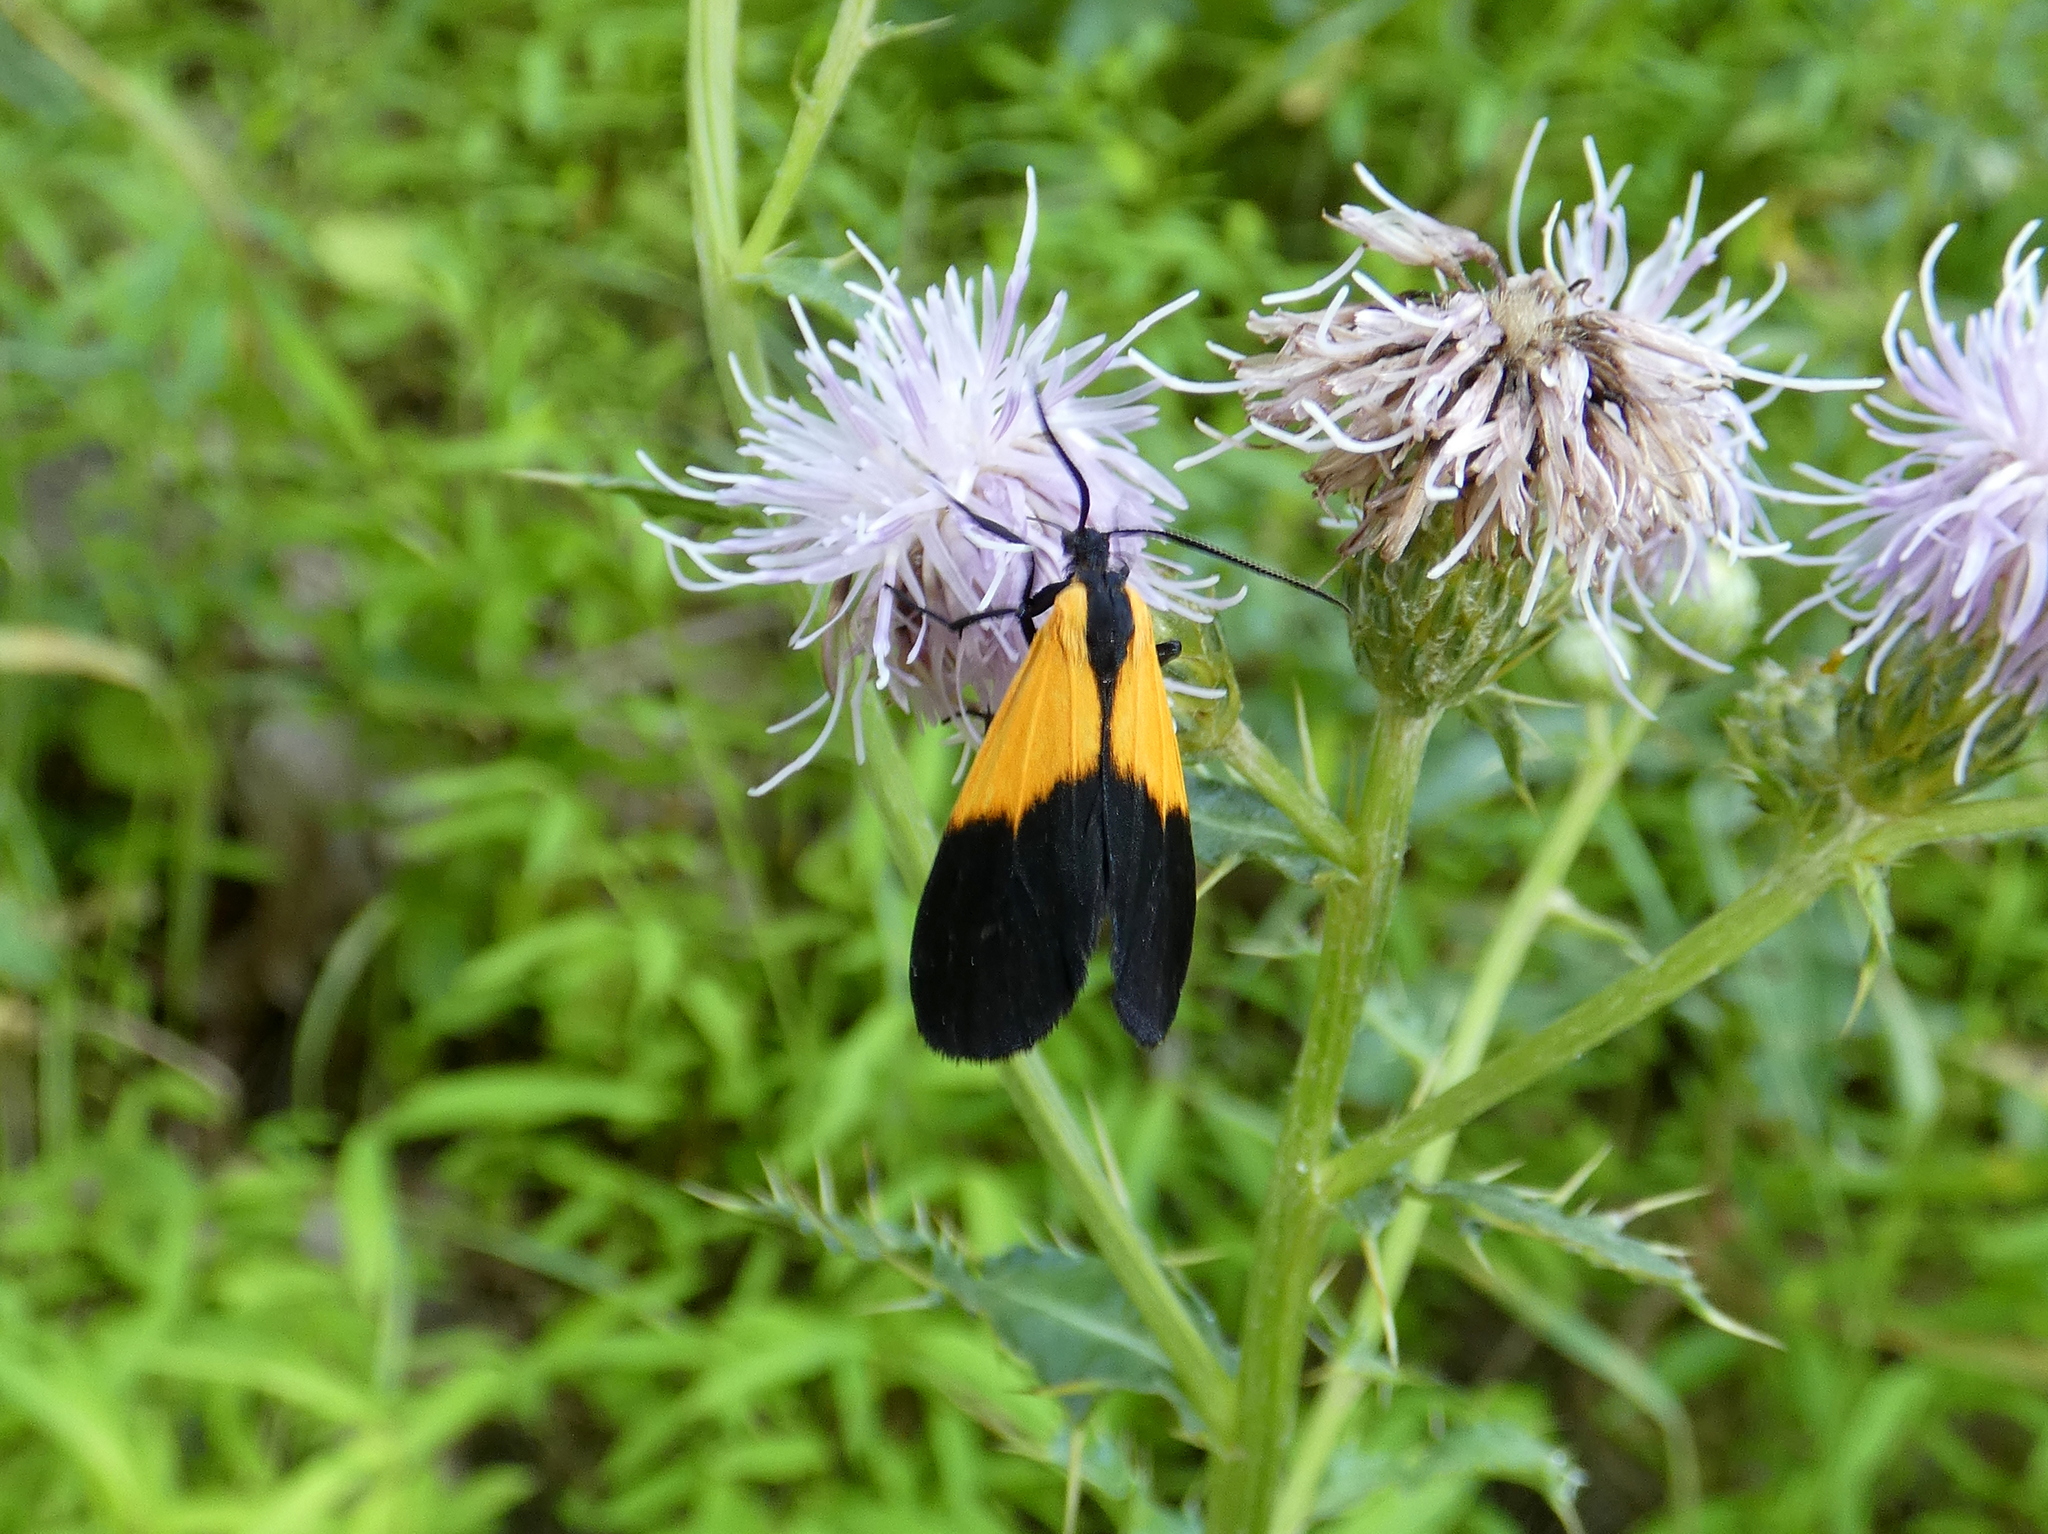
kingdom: Animalia
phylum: Arthropoda
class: Insecta
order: Lepidoptera
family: Erebidae
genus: Lycomorpha
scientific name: Lycomorpha pholus
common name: Black-and-yellow lichen moth
